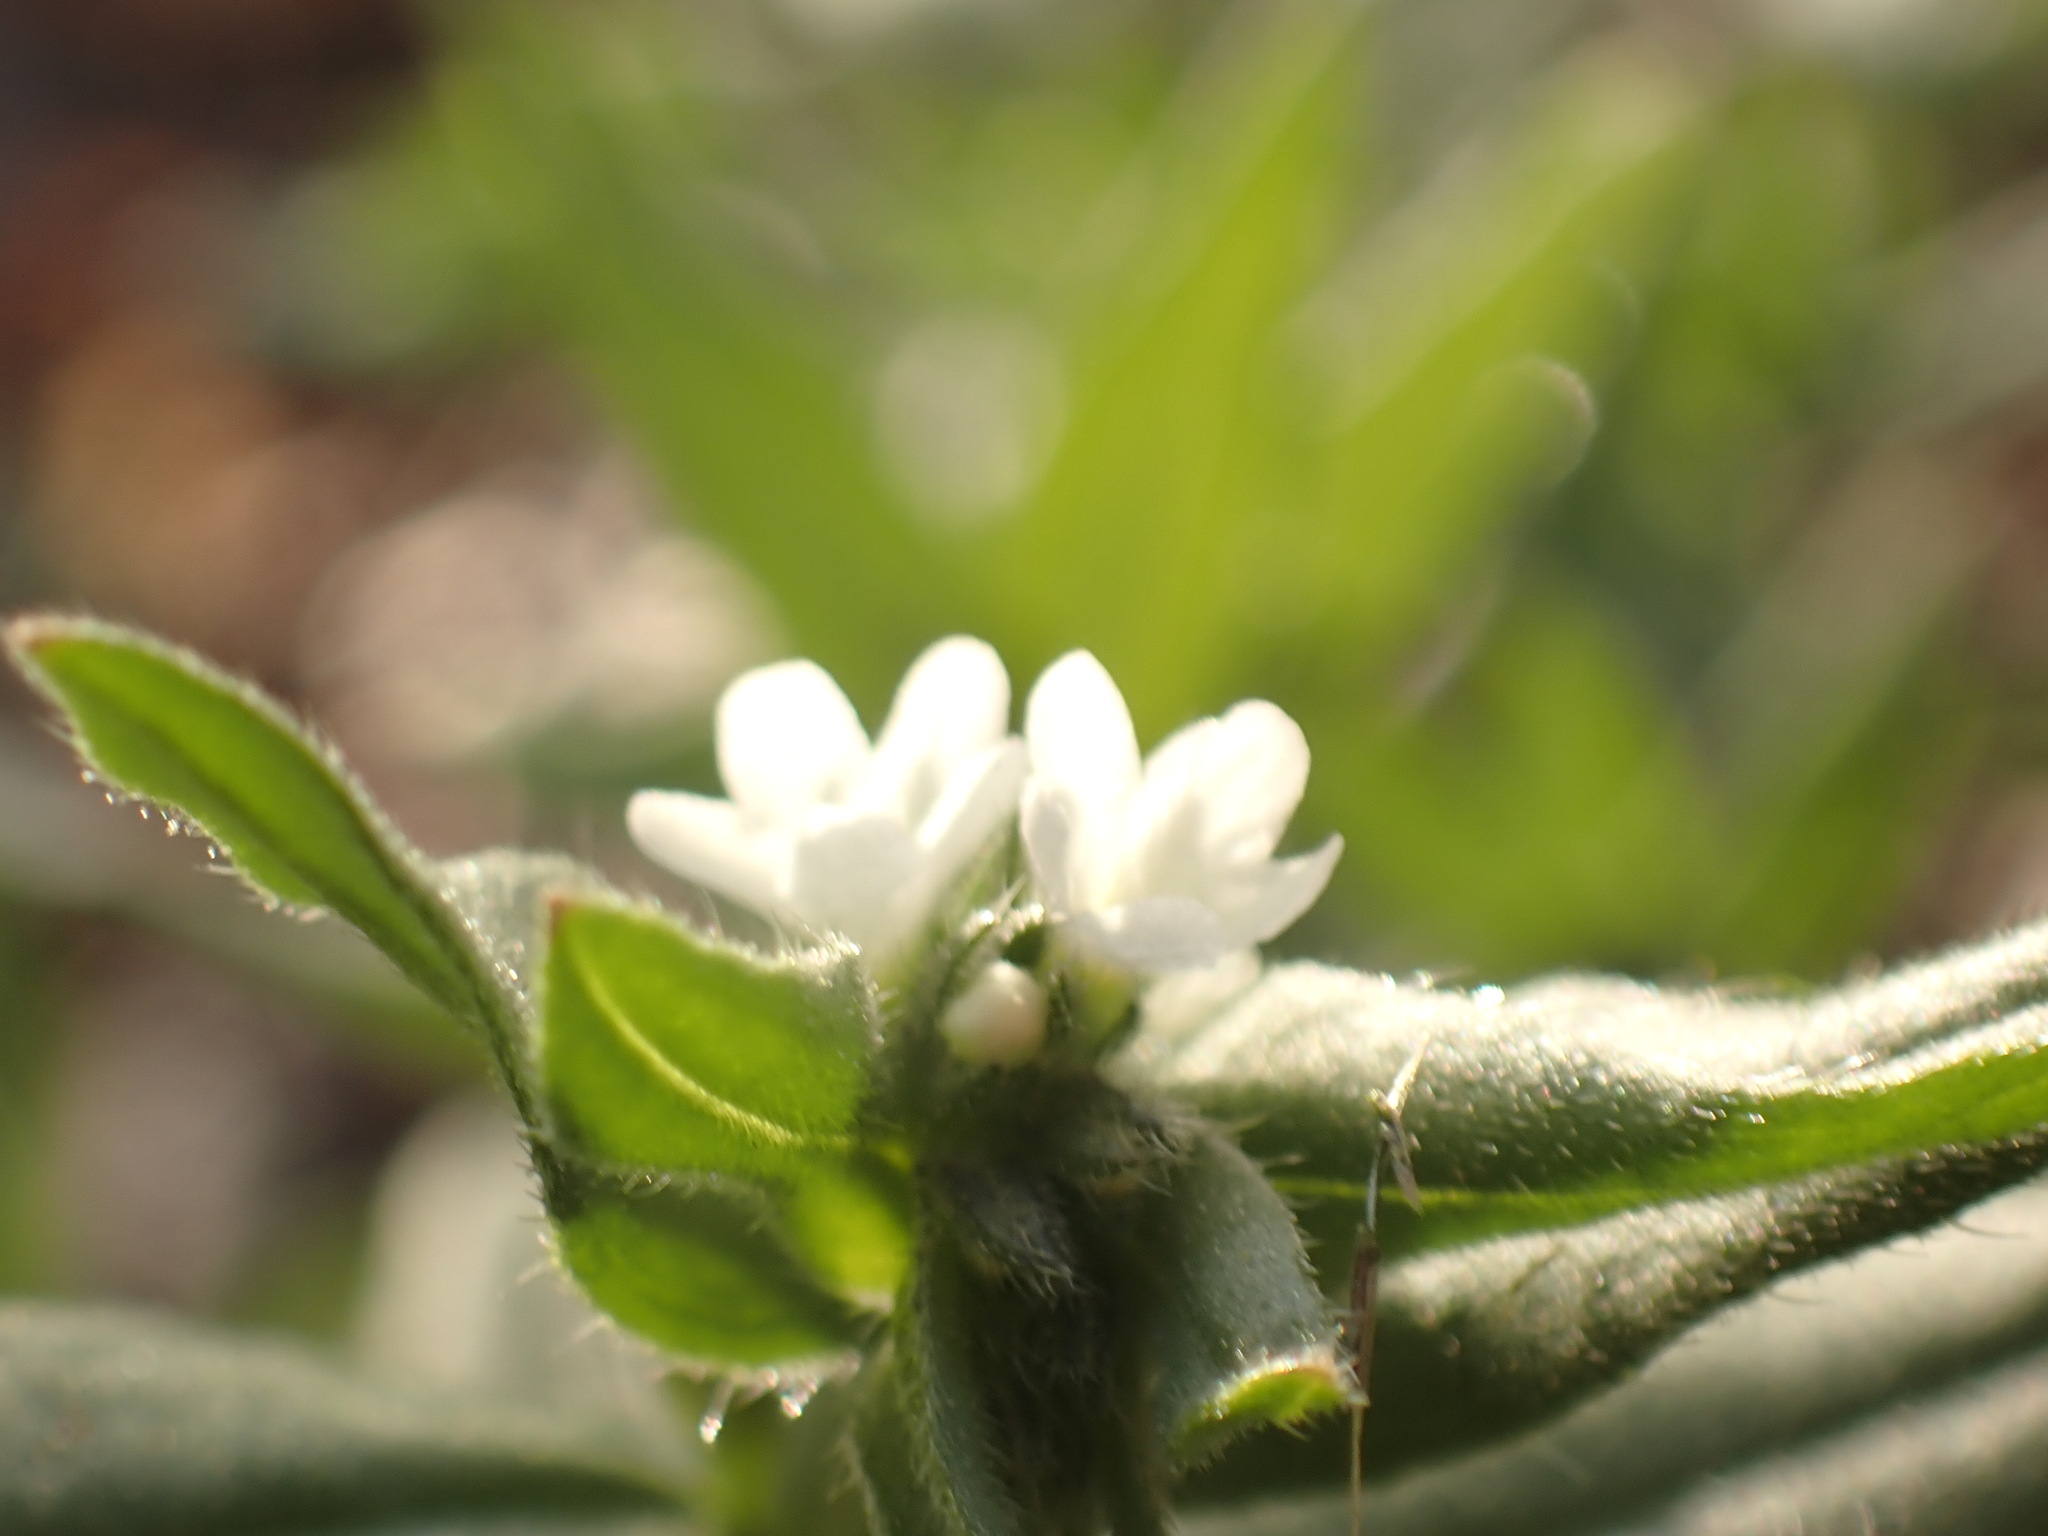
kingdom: Plantae
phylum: Tracheophyta
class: Magnoliopsida
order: Boraginales
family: Boraginaceae
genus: Buglossoides
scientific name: Buglossoides arvensis
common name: Corn gromwell
